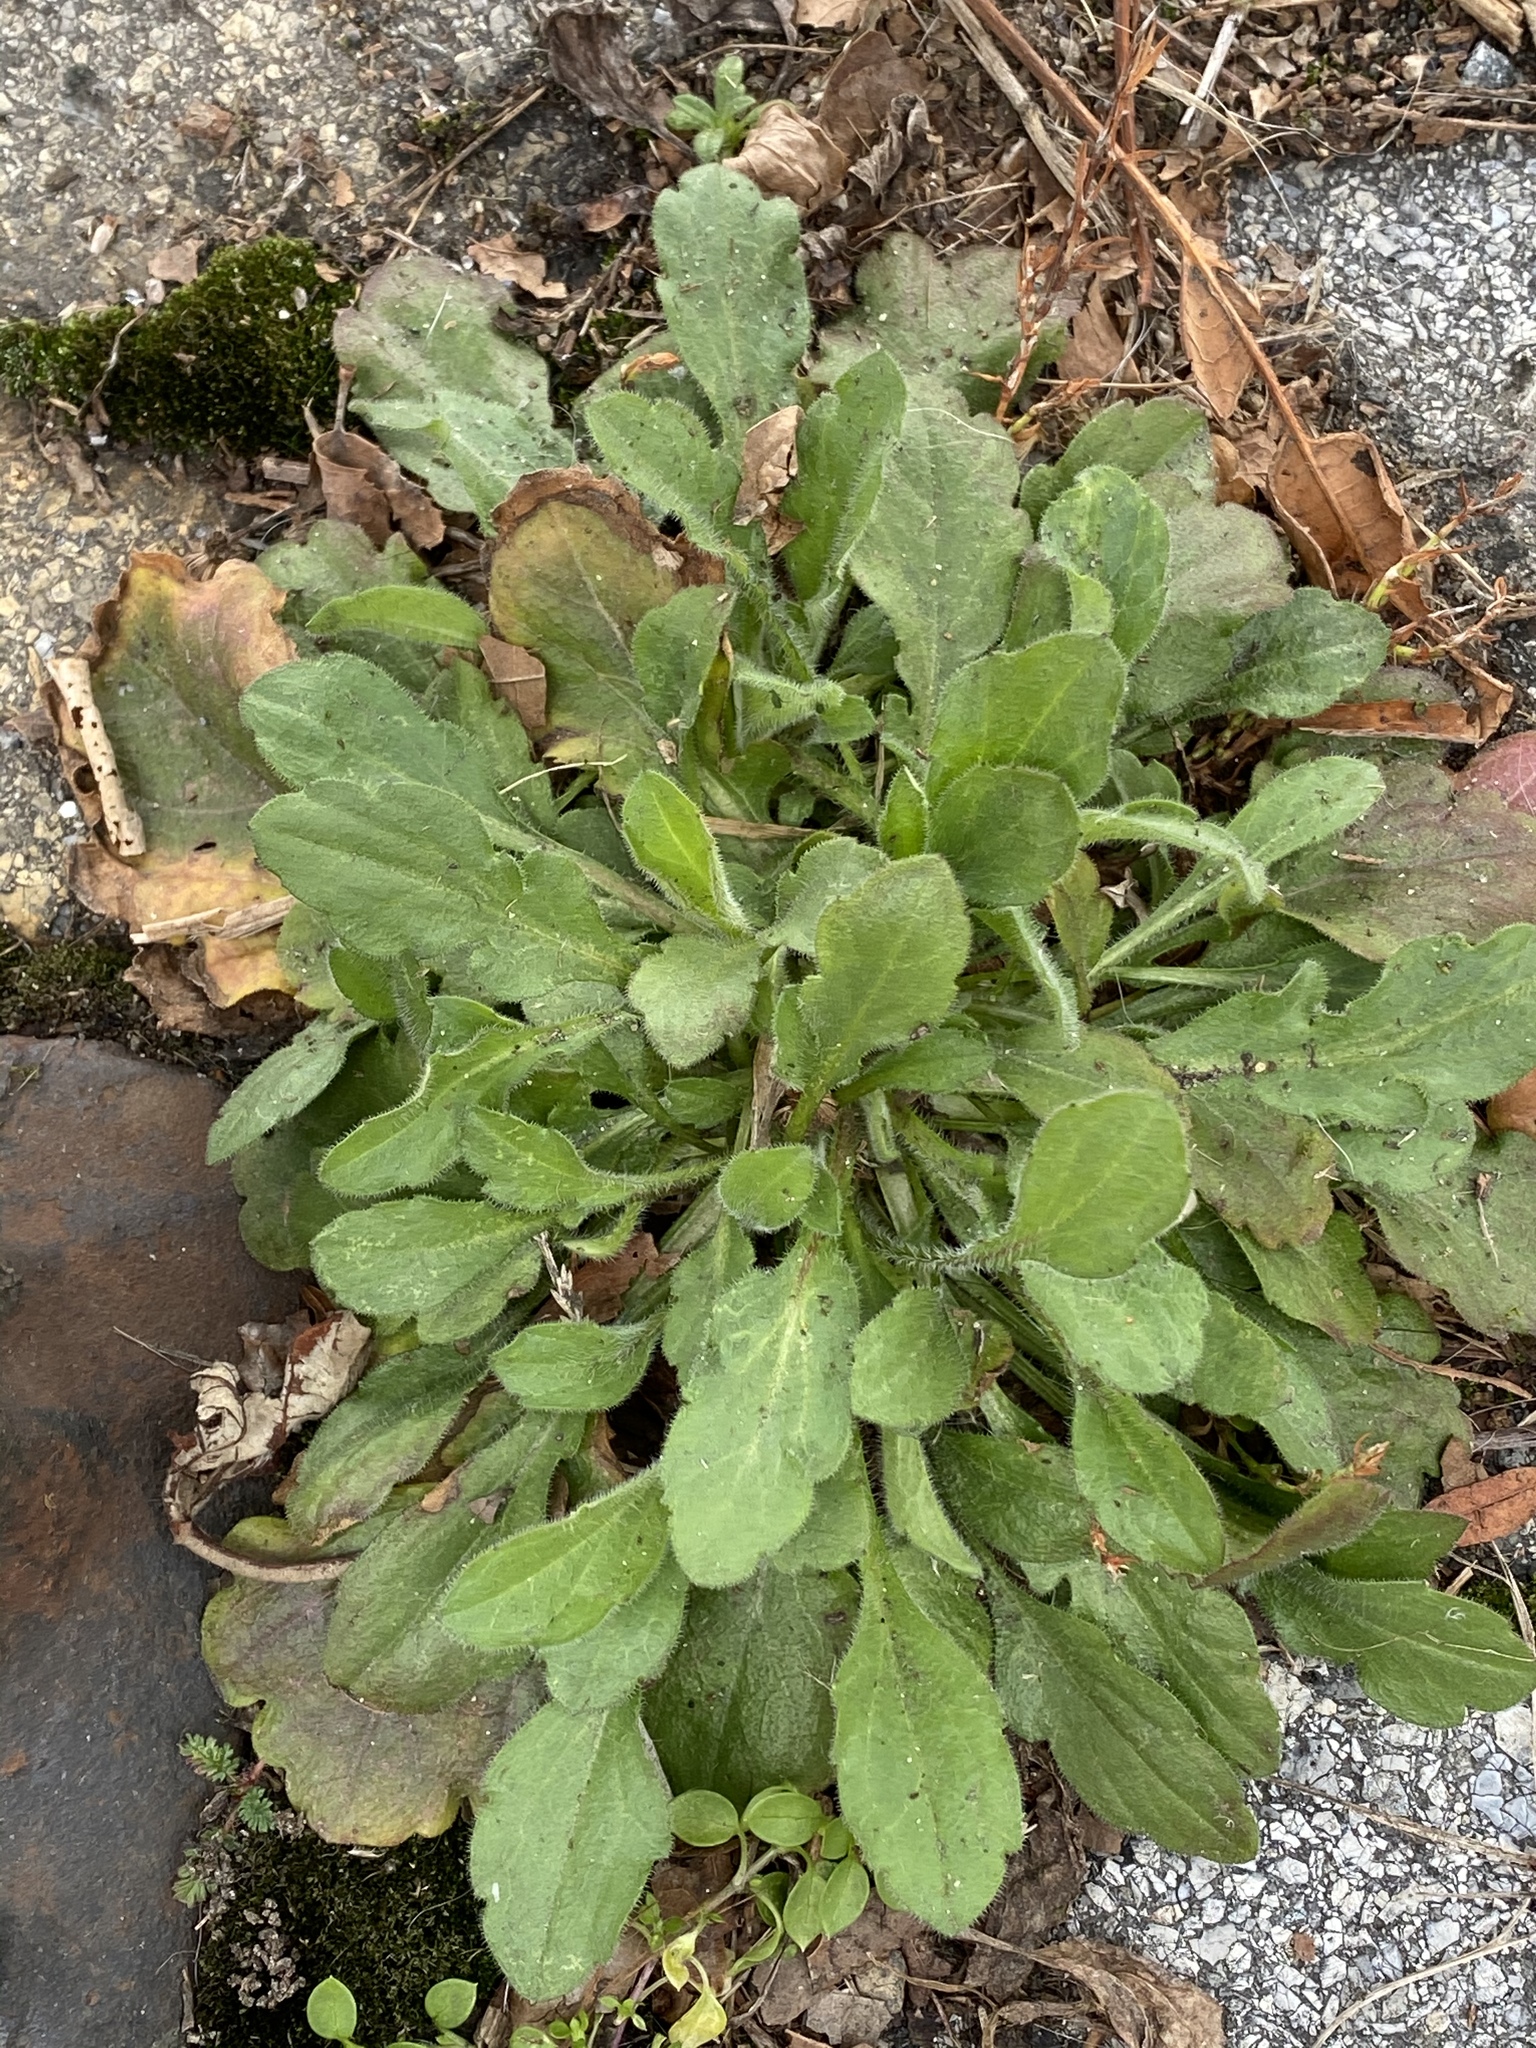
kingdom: Plantae
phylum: Tracheophyta
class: Magnoliopsida
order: Asterales
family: Asteraceae
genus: Erigeron
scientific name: Erigeron canadensis
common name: Canadian fleabane
